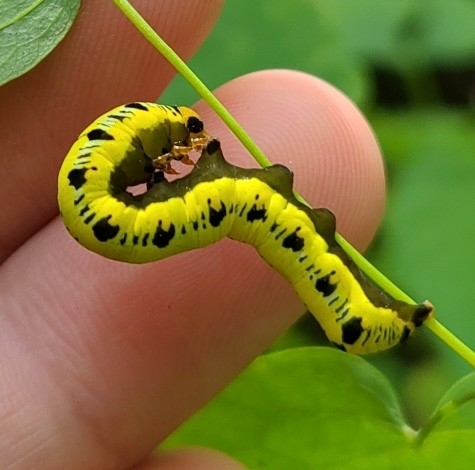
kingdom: Animalia
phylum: Arthropoda
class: Insecta
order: Lepidoptera
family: Erebidae
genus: Calyptra
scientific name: Calyptra canadensis
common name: Canadian owlet
